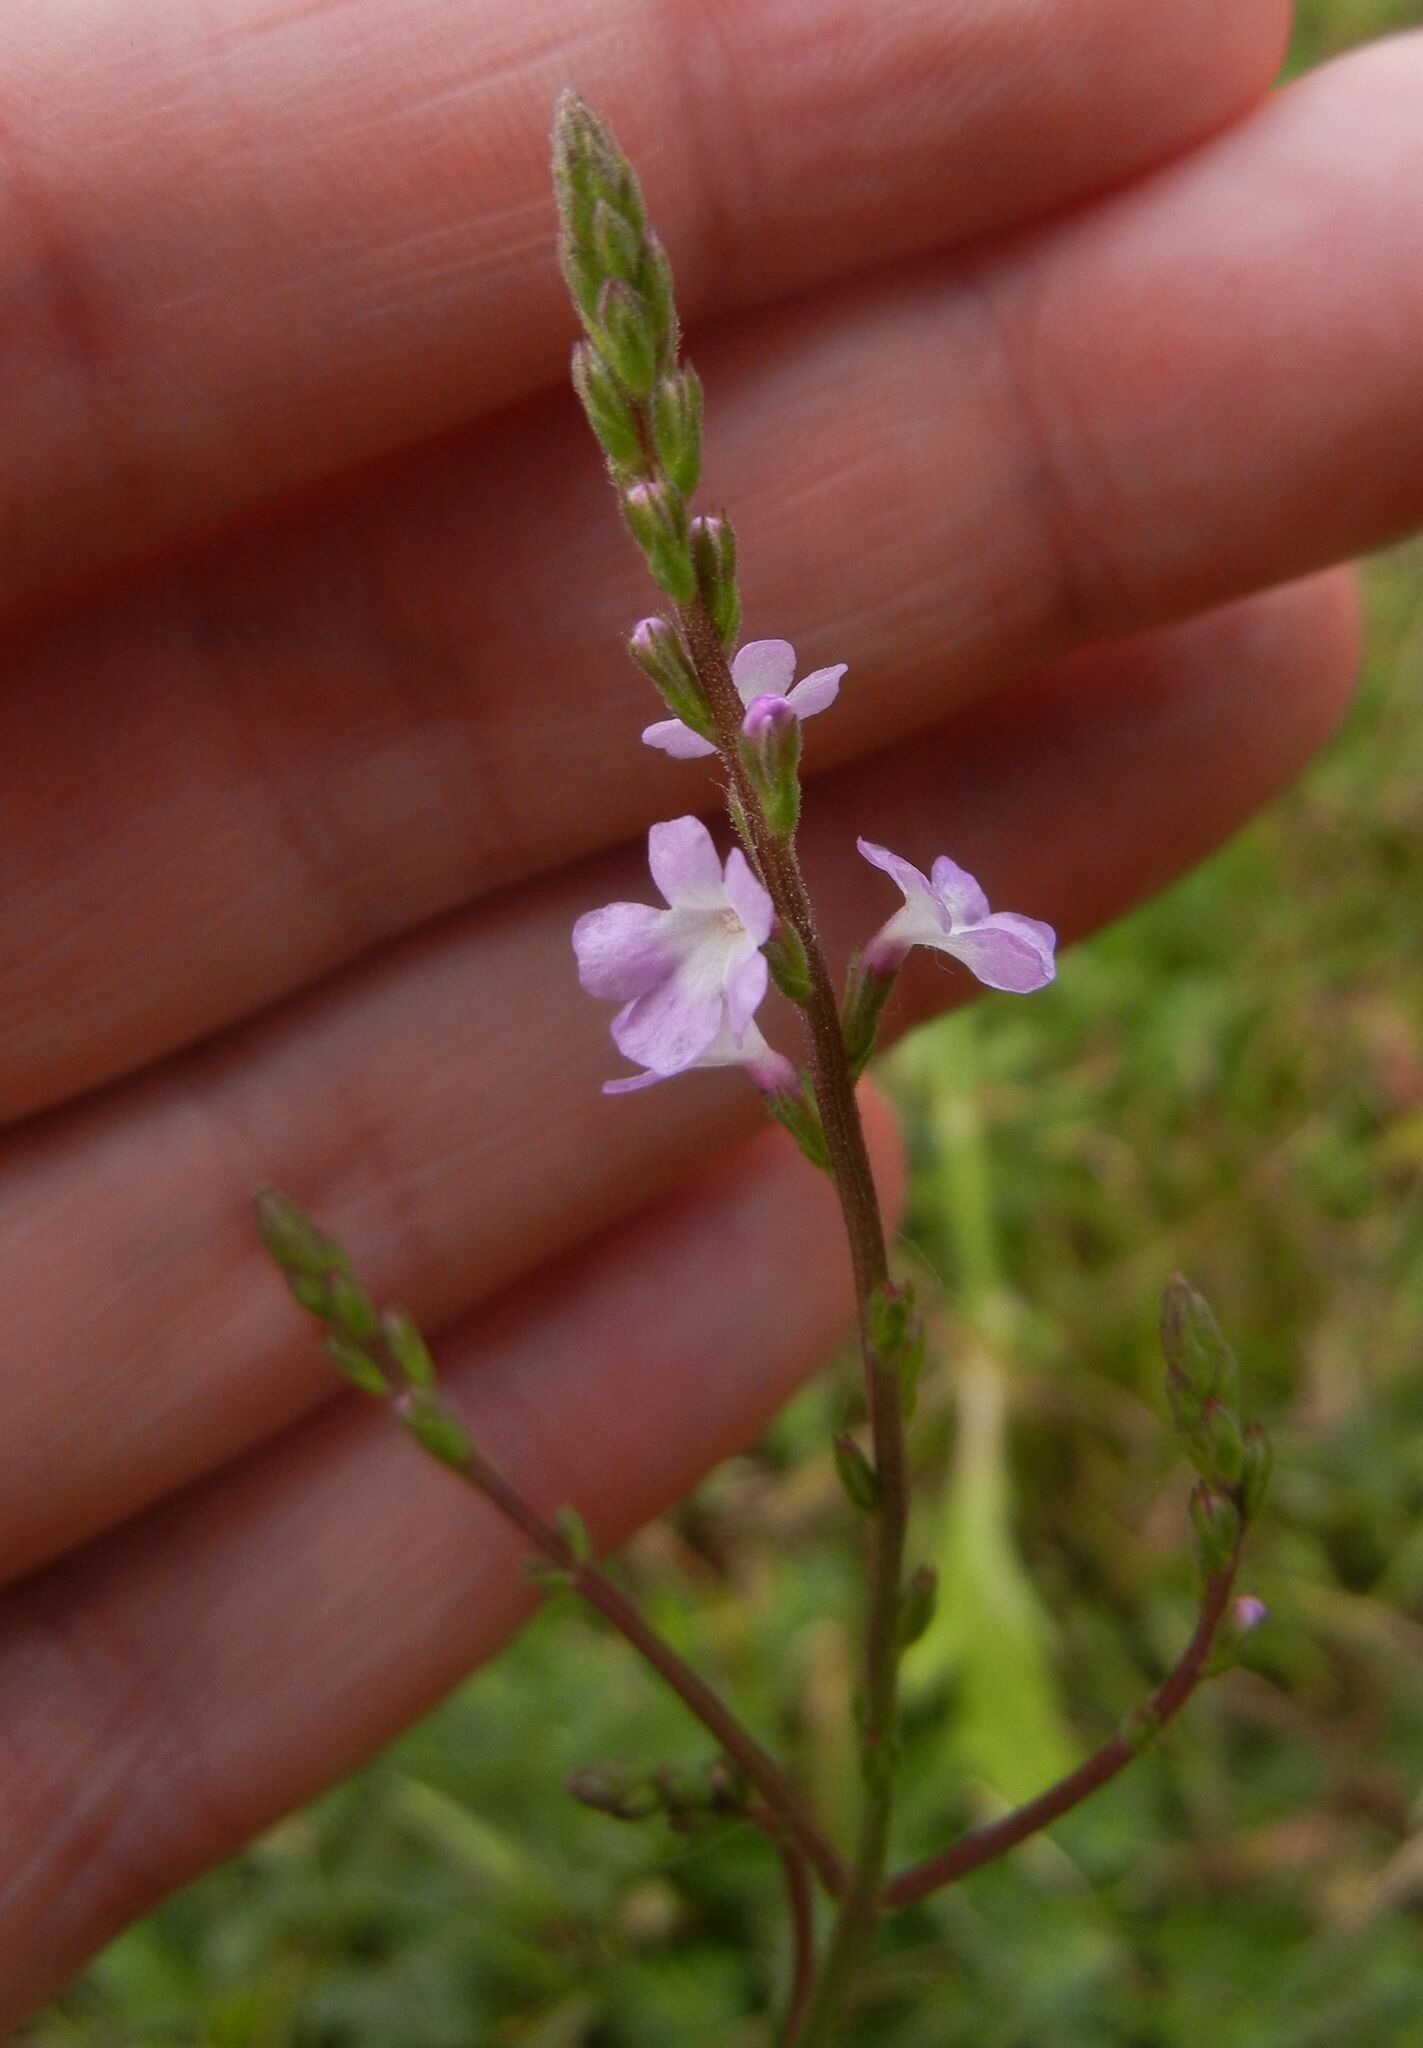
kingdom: Plantae
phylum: Tracheophyta
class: Magnoliopsida
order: Lamiales
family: Verbenaceae
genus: Verbena
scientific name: Verbena officinalis
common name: Vervain
